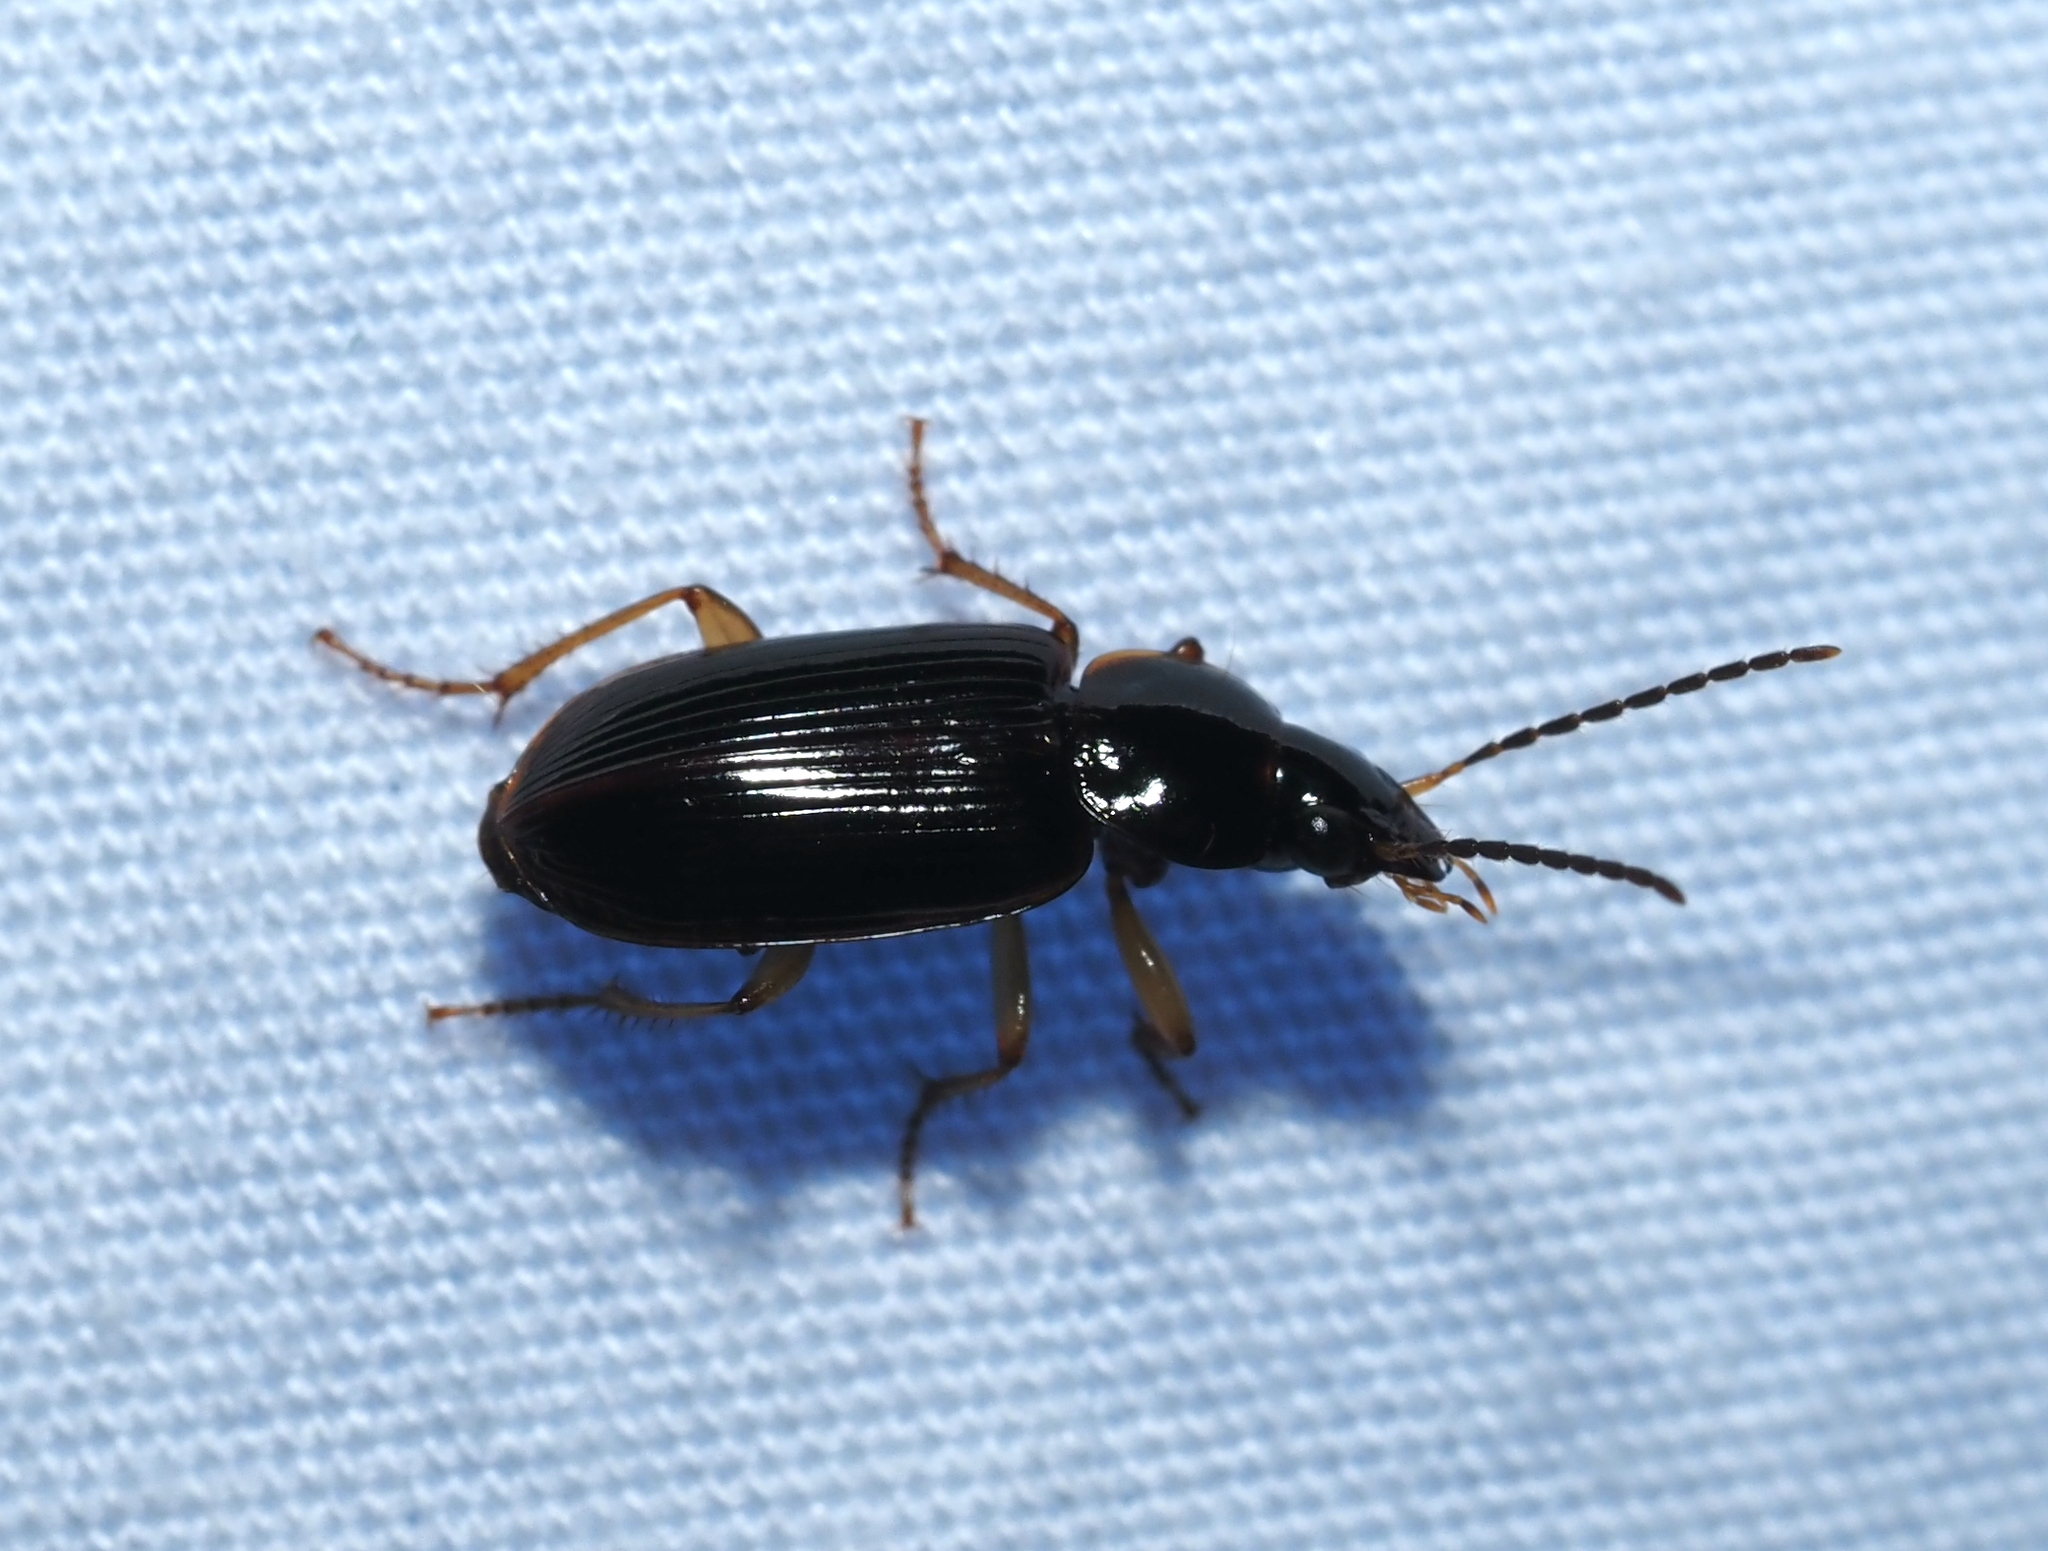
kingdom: Animalia
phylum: Arthropoda
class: Insecta
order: Coleoptera
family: Carabidae
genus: Stenolophus
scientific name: Stenolophus ochropezus
